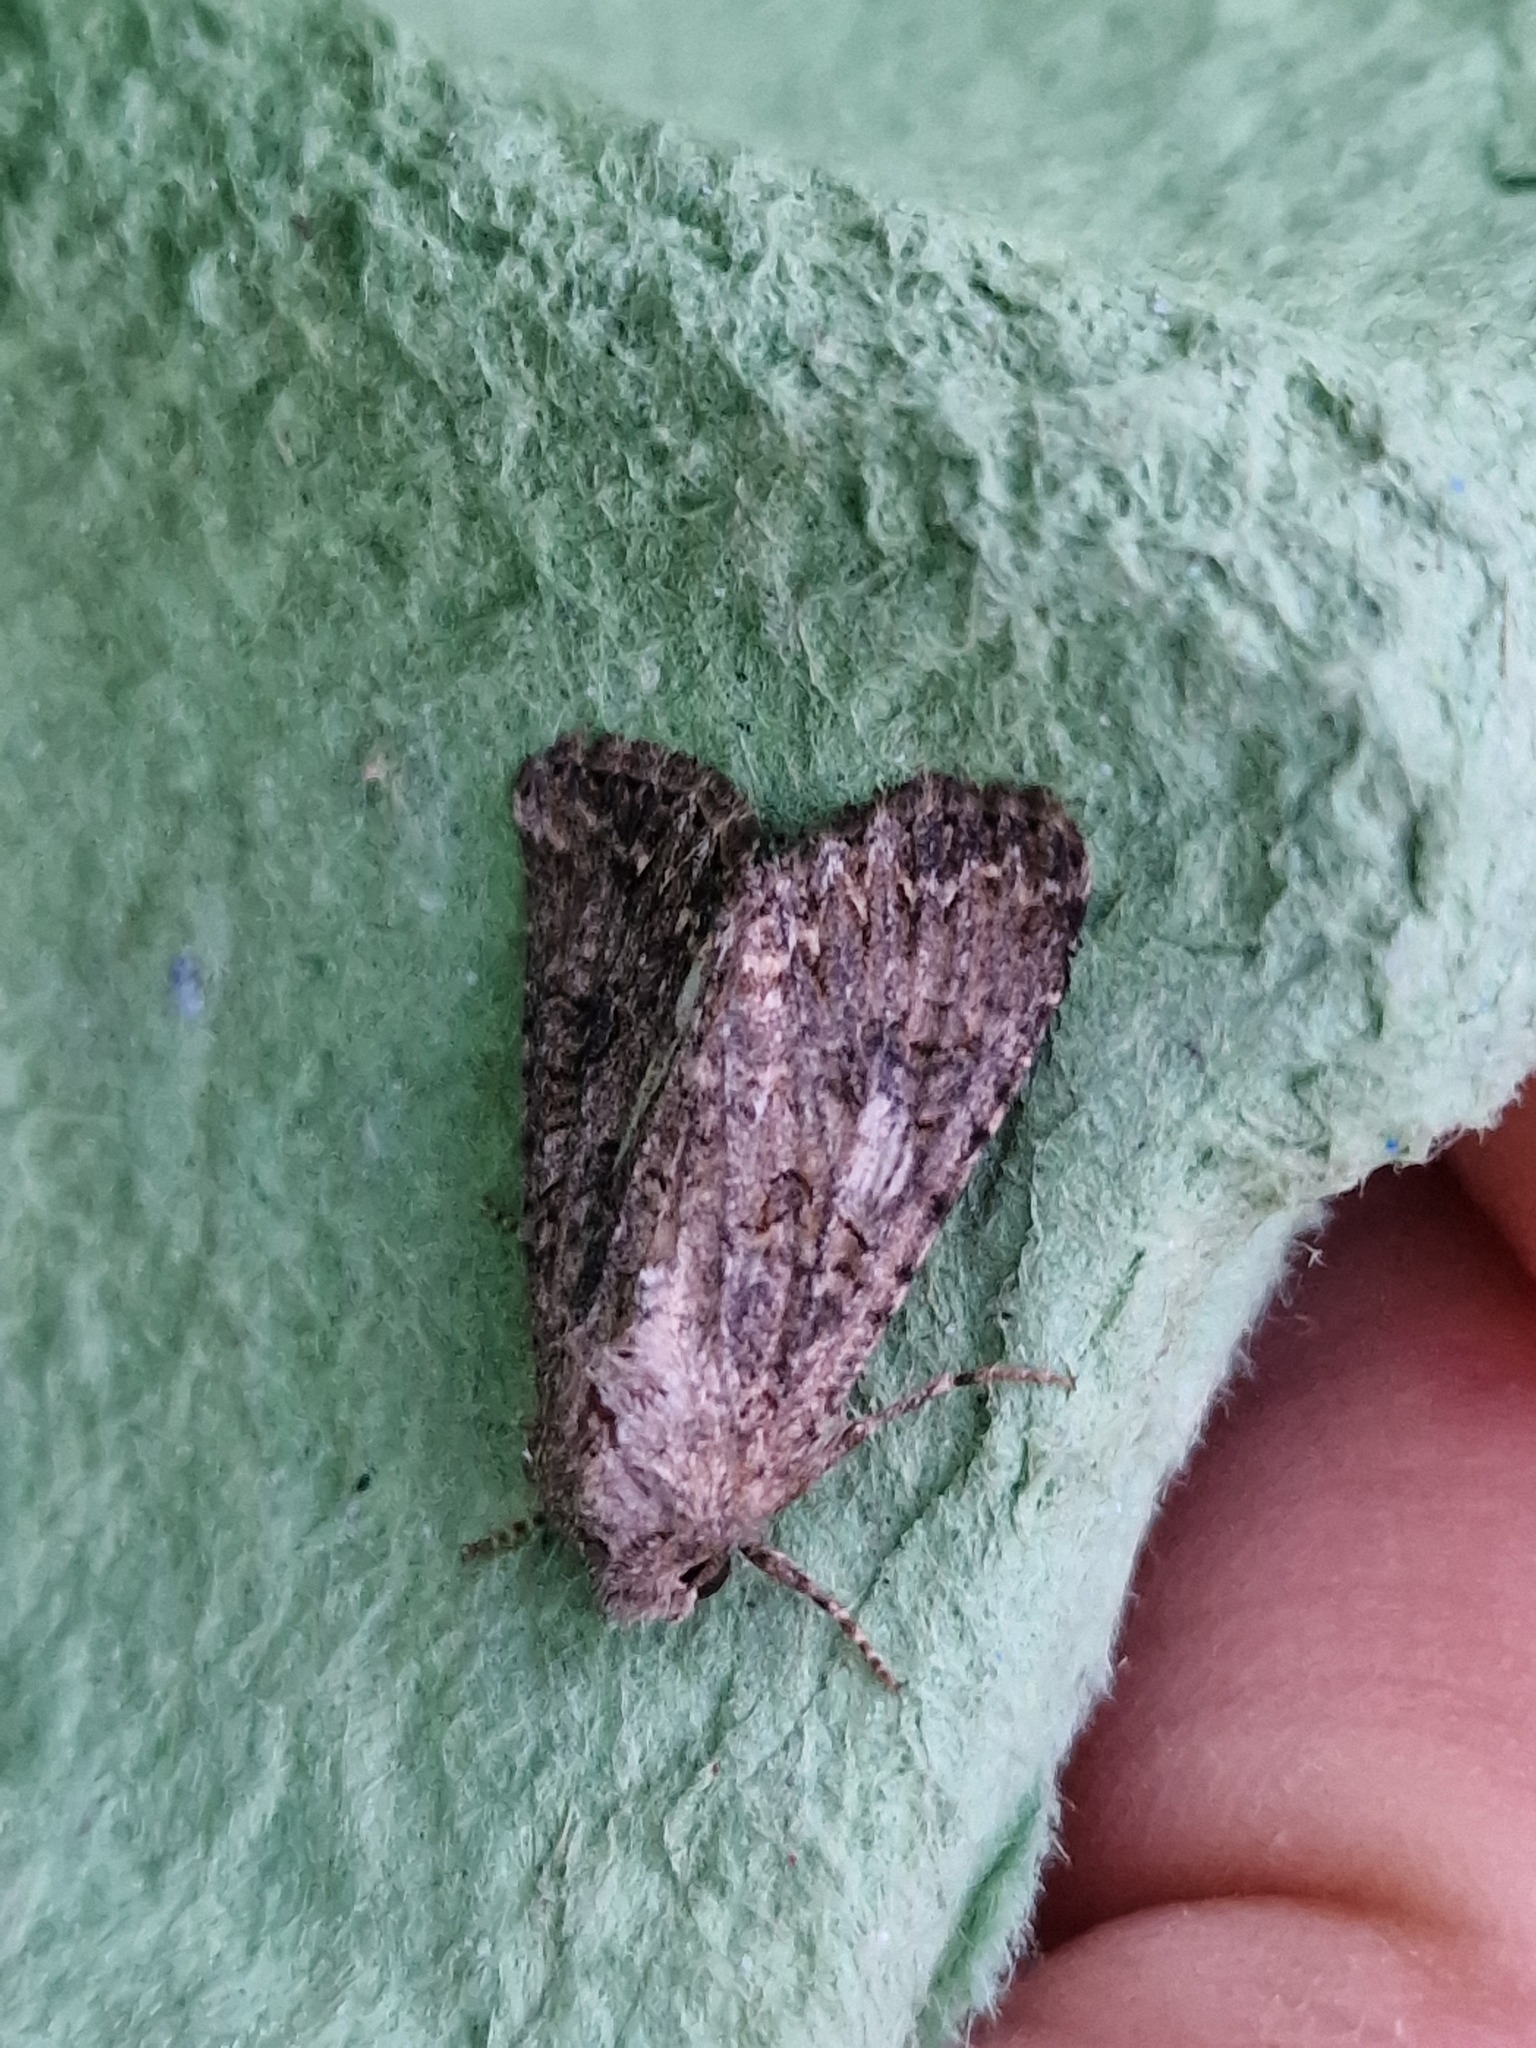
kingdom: Animalia
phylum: Arthropoda
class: Insecta
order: Lepidoptera
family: Noctuidae
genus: Anarta
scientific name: Anarta trifolii
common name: Clover cutworm moth
